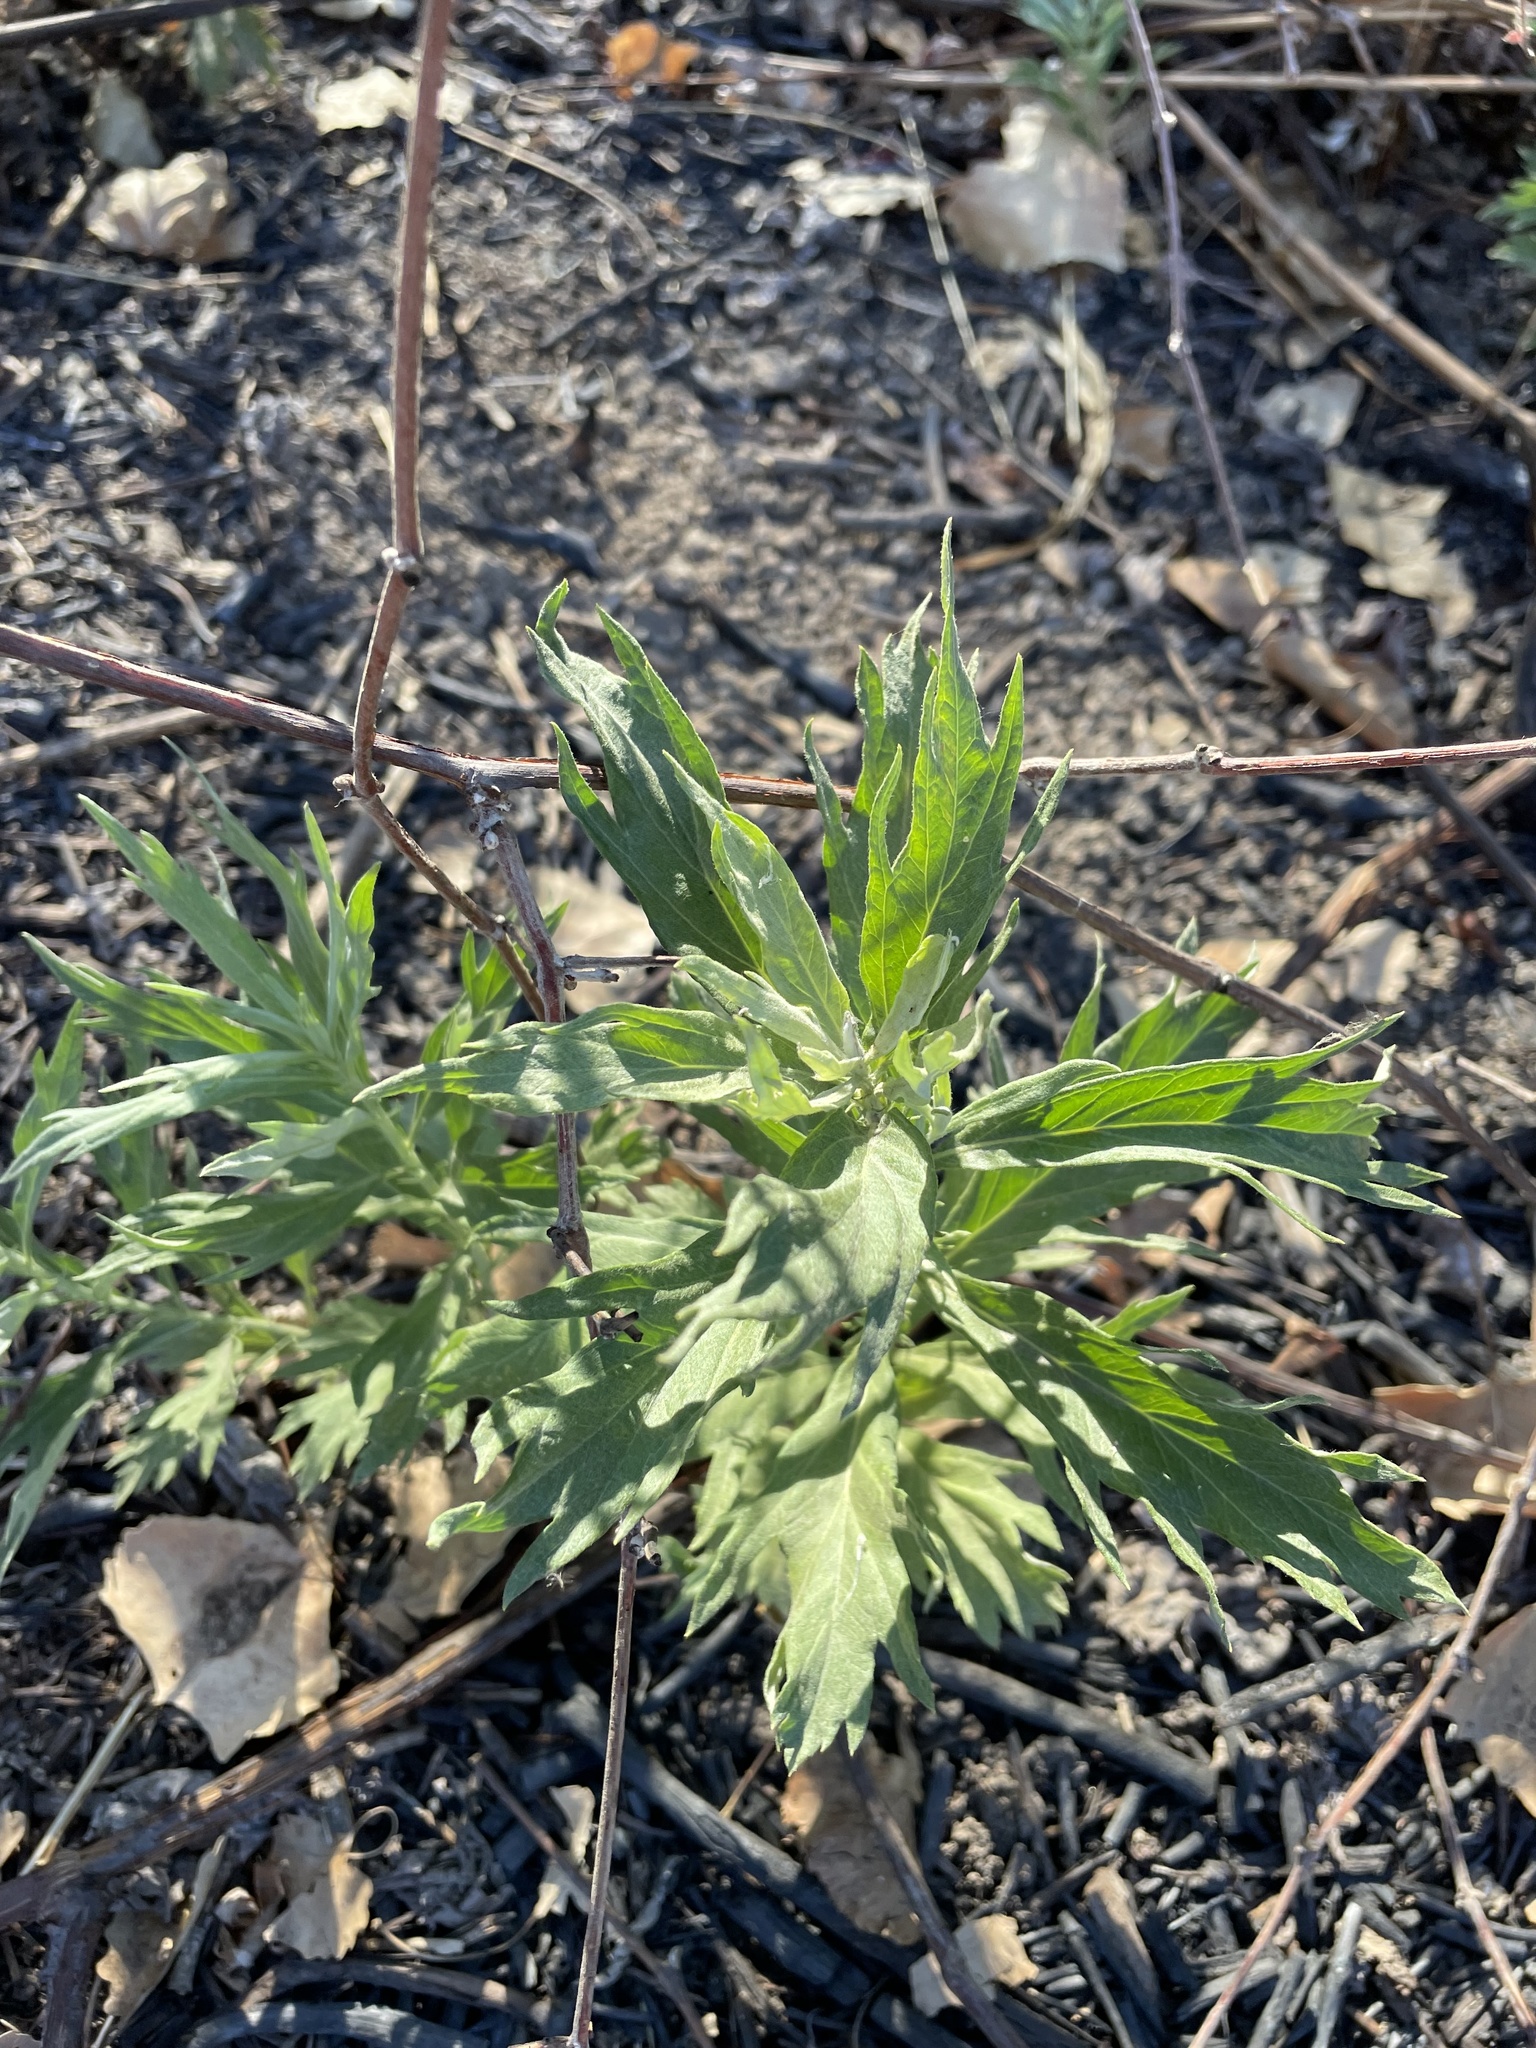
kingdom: Plantae
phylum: Tracheophyta
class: Magnoliopsida
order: Asterales
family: Asteraceae
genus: Artemisia
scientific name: Artemisia douglasiana
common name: Northwest mugwort
